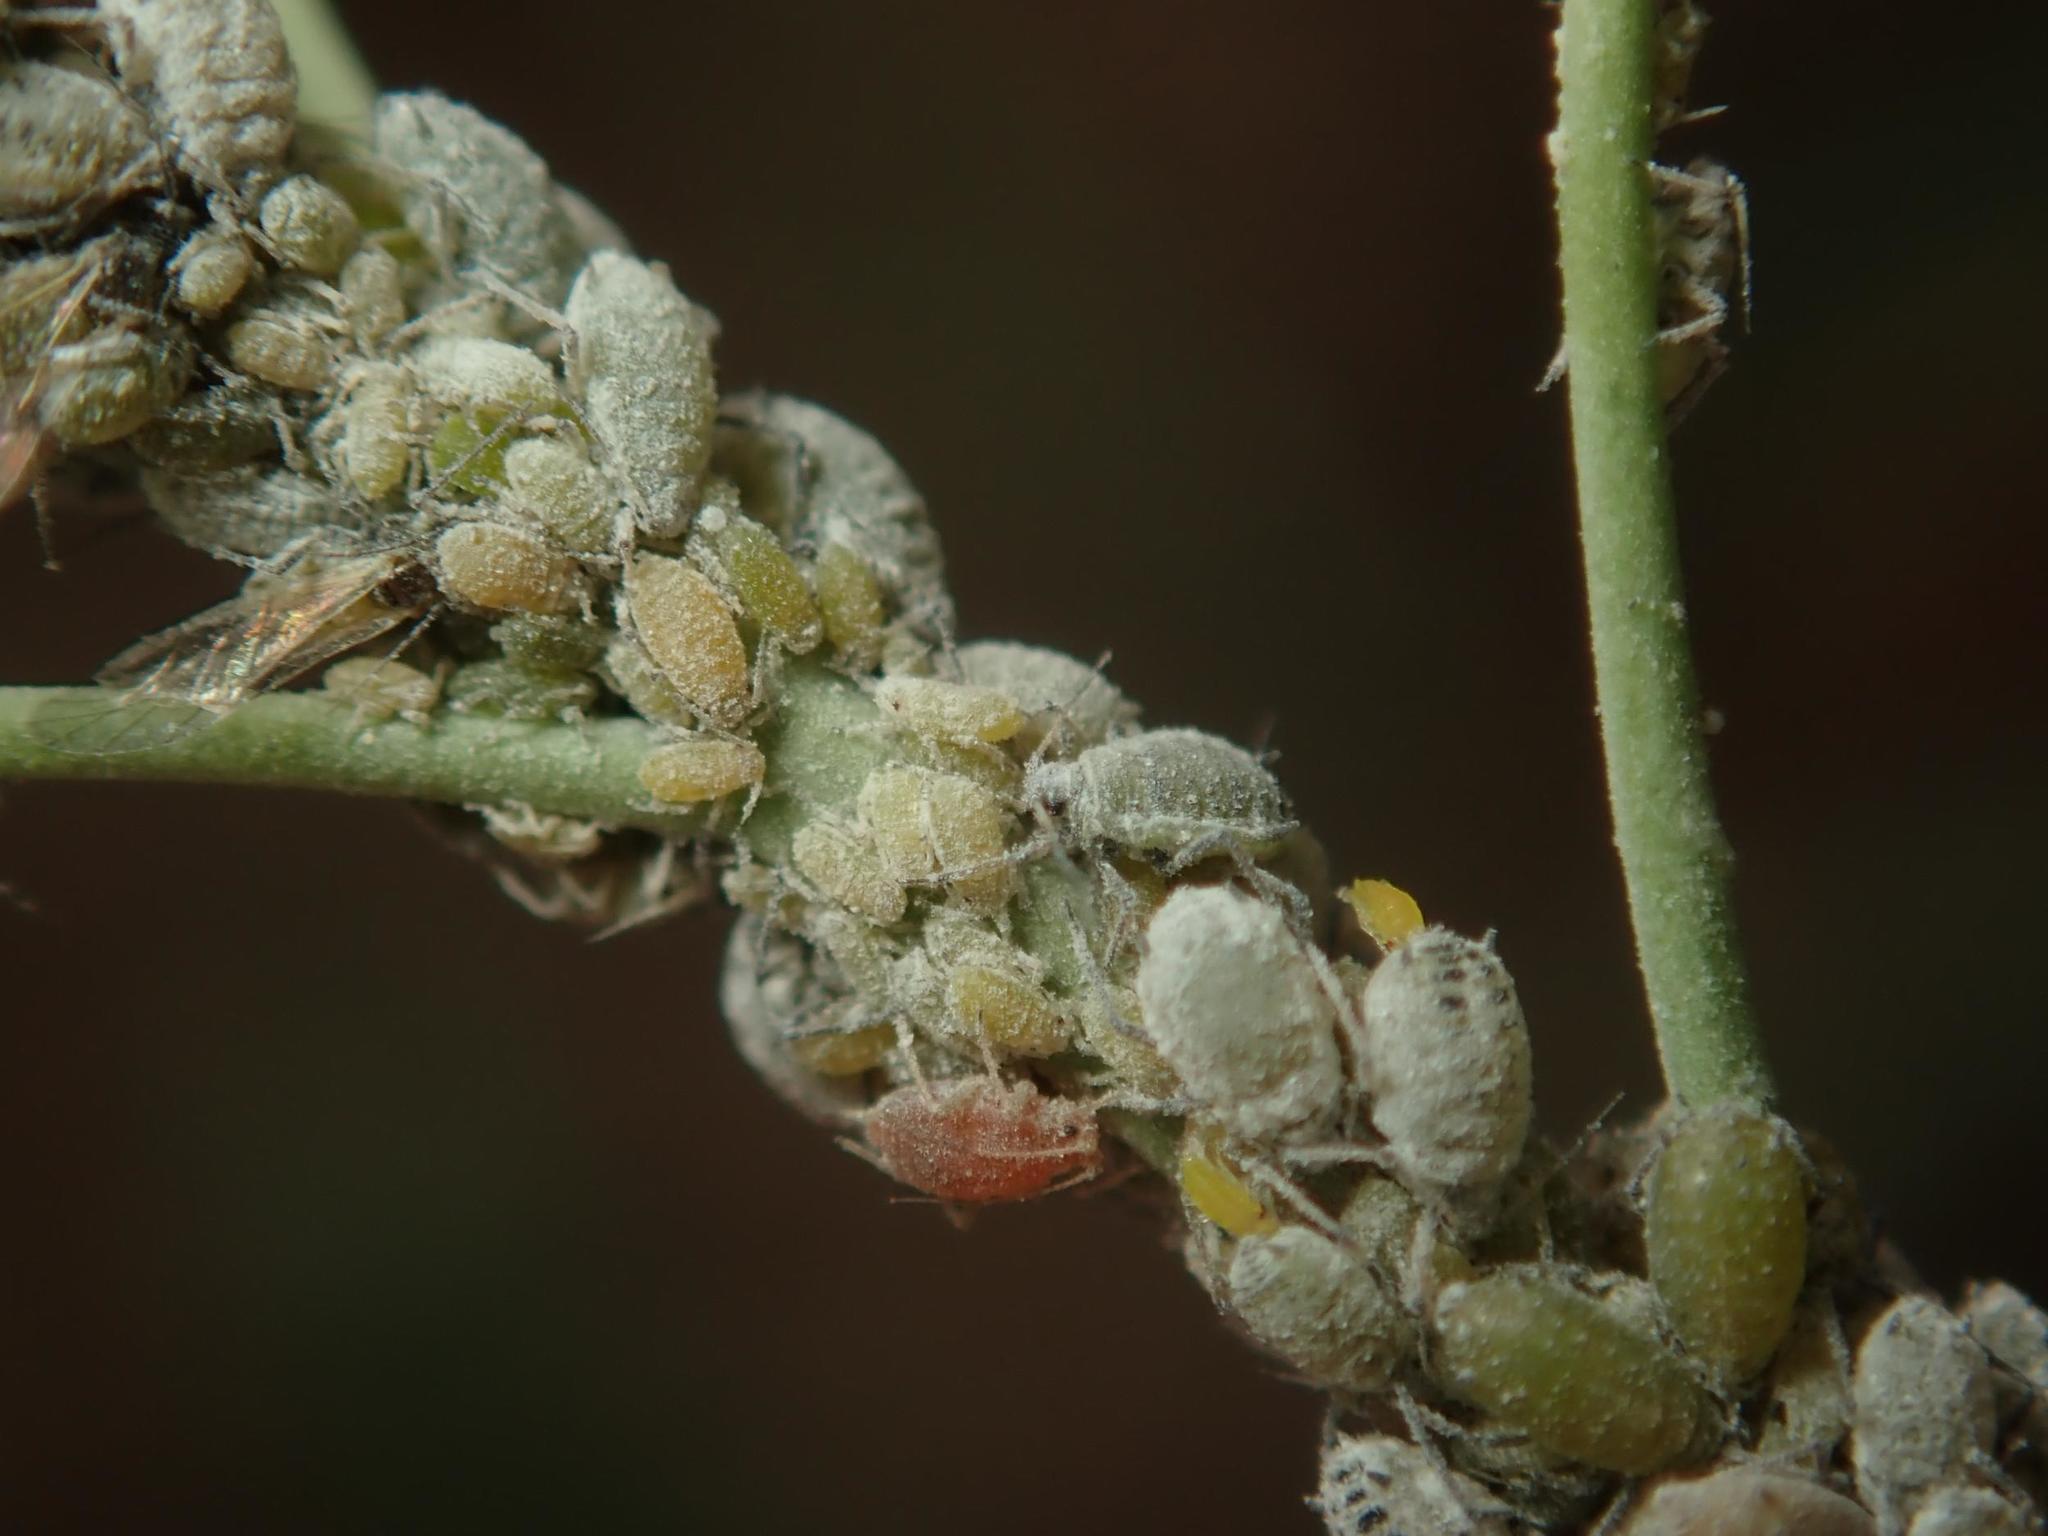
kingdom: Animalia
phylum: Arthropoda
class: Insecta
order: Hemiptera
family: Aphididae
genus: Brevicoryne
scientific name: Brevicoryne brassicae
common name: Cabbage aphid
